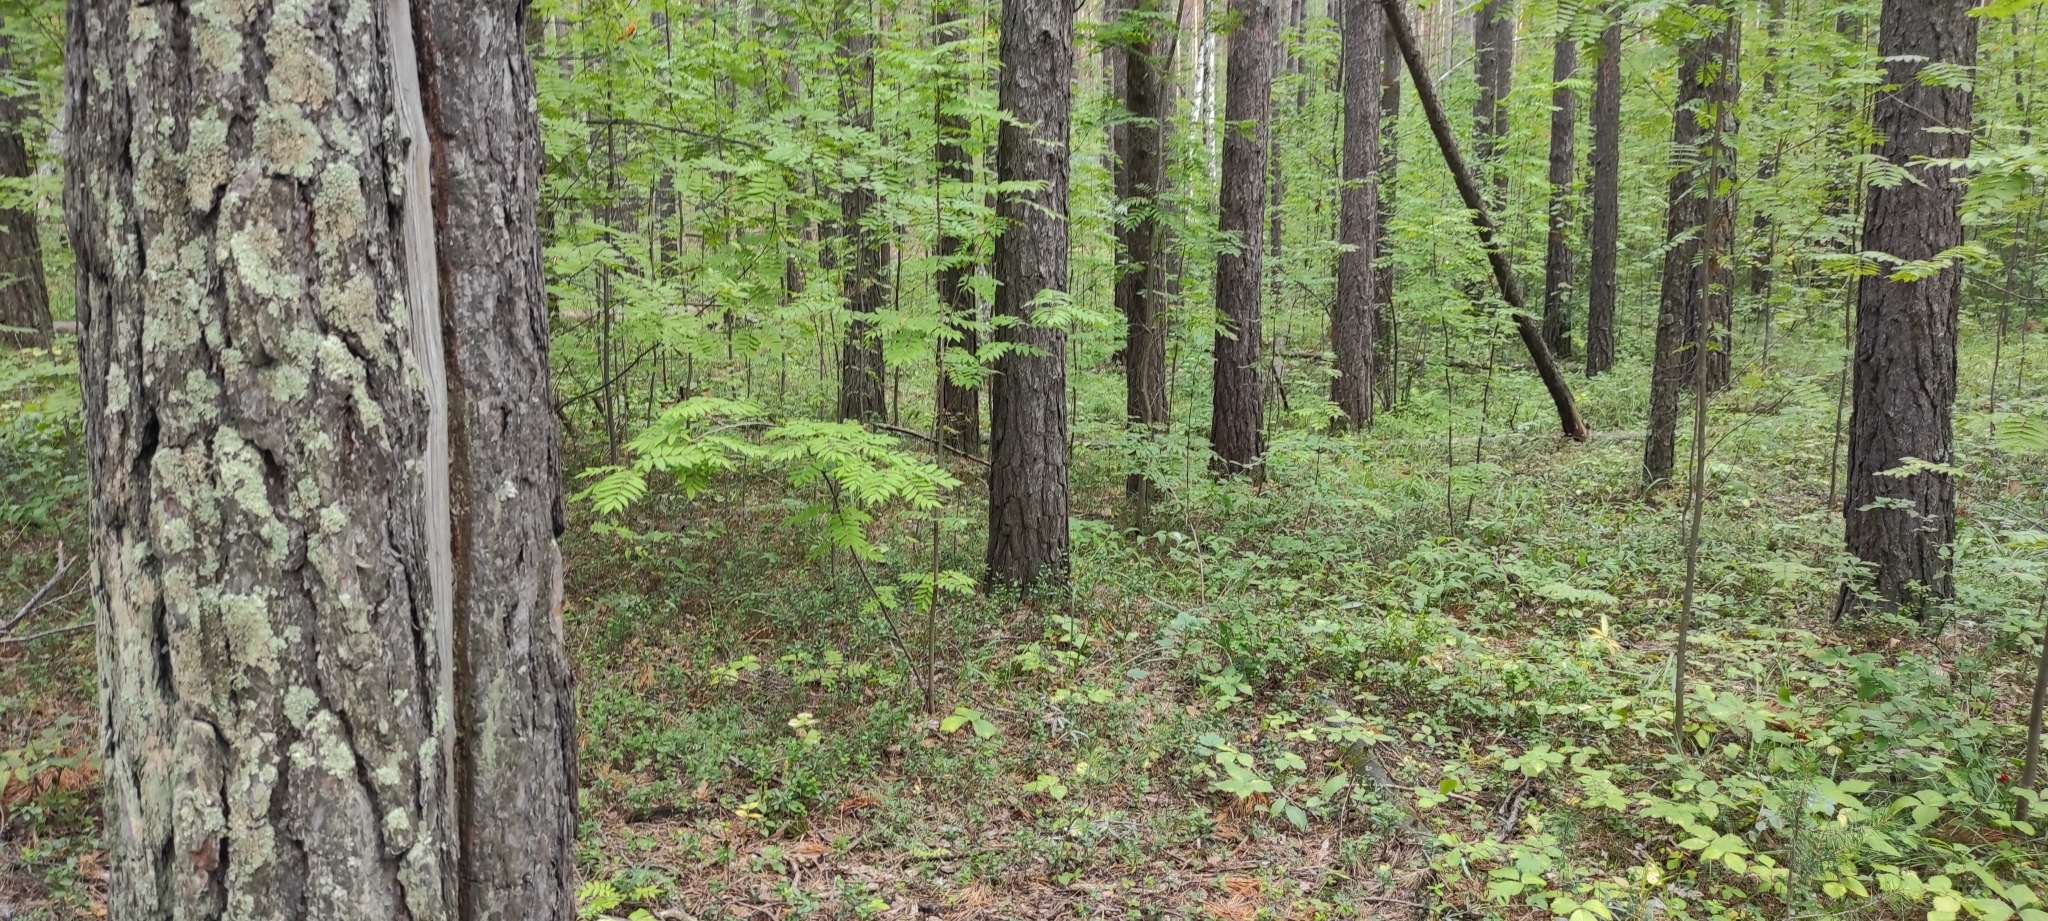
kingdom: Plantae
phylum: Tracheophyta
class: Pinopsida
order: Pinales
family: Pinaceae
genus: Pinus
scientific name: Pinus sylvestris
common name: Scots pine
